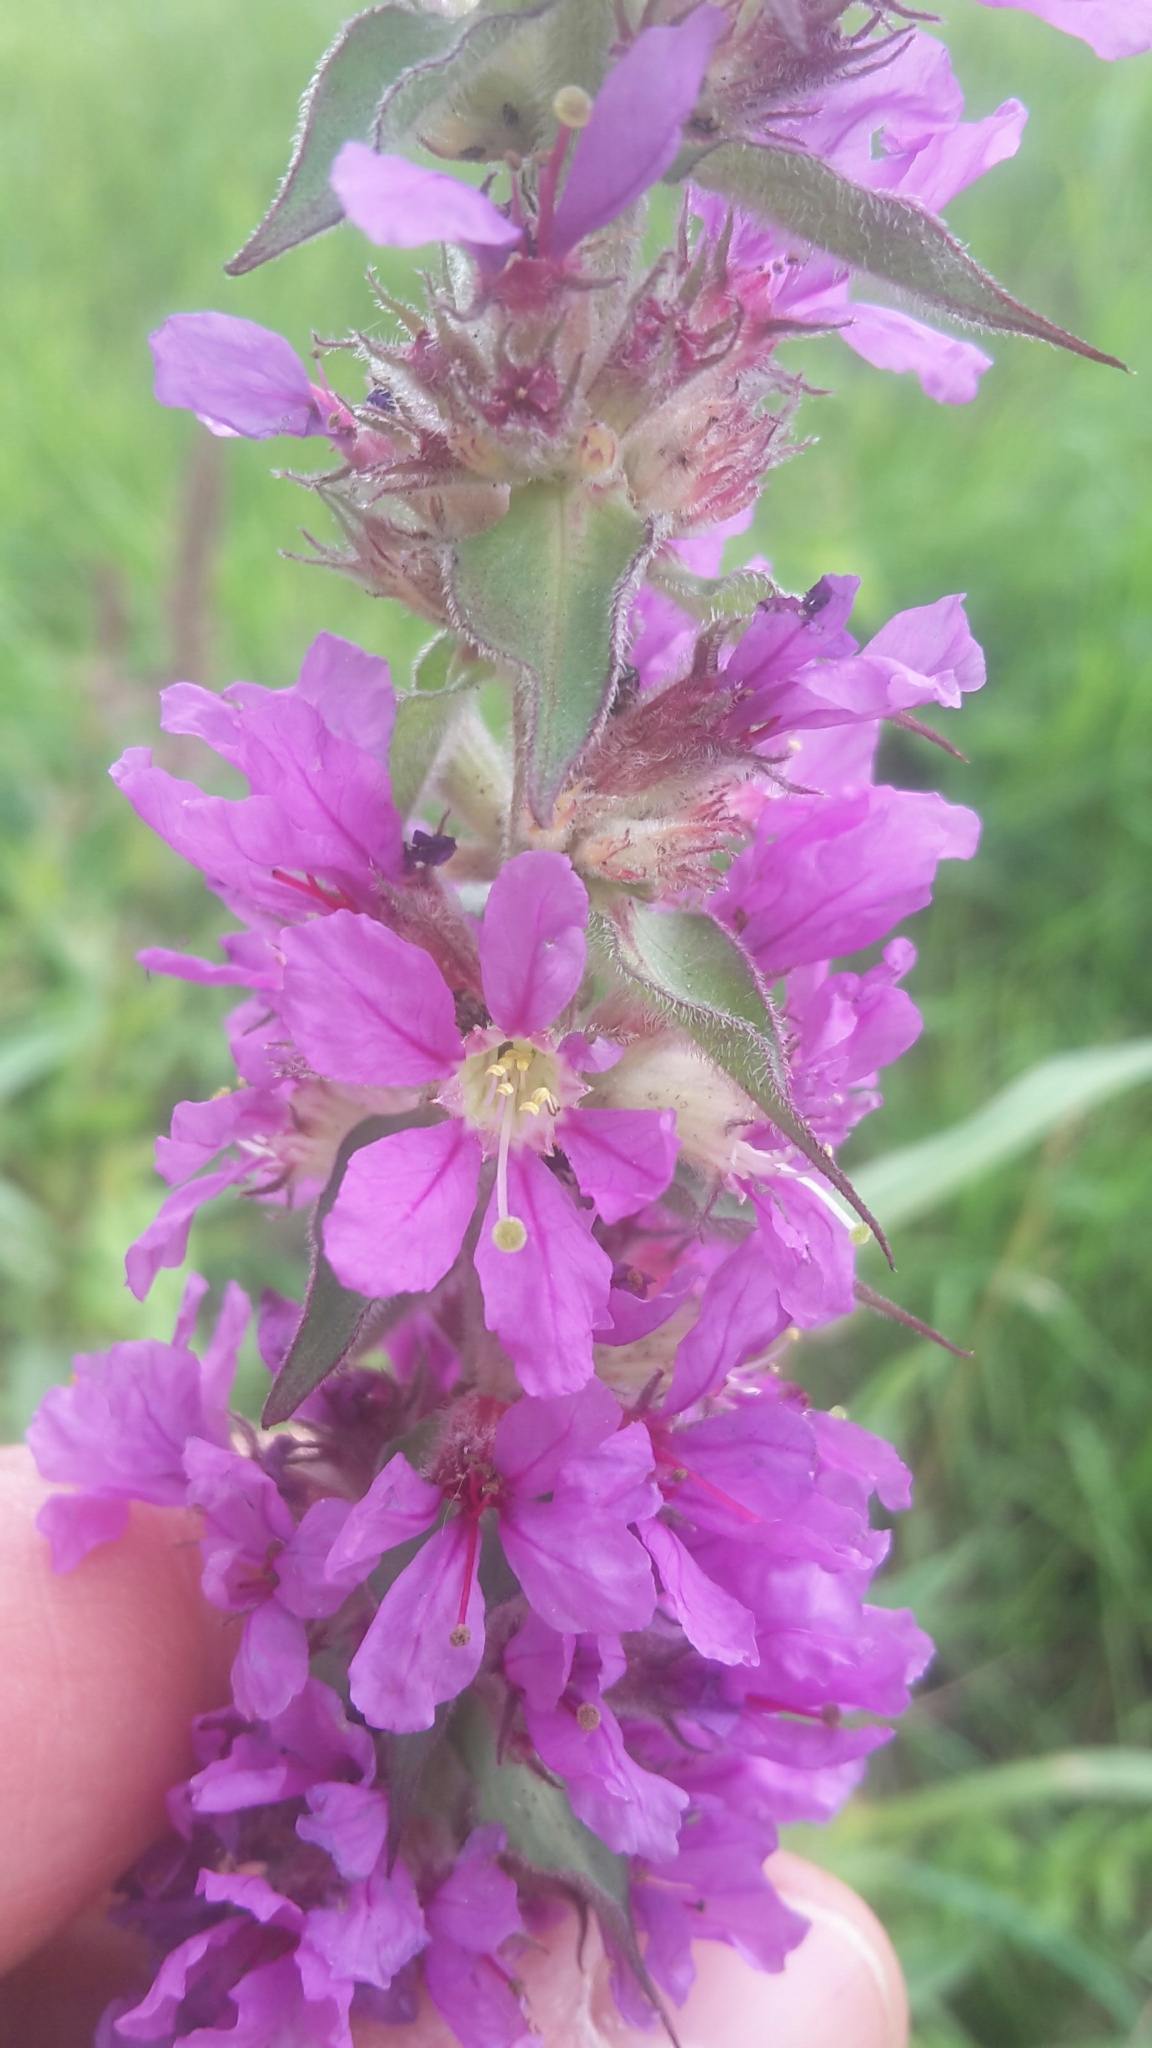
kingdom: Plantae
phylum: Tracheophyta
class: Magnoliopsida
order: Myrtales
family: Lythraceae
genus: Lythrum
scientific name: Lythrum salicaria
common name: Purple loosestrife
